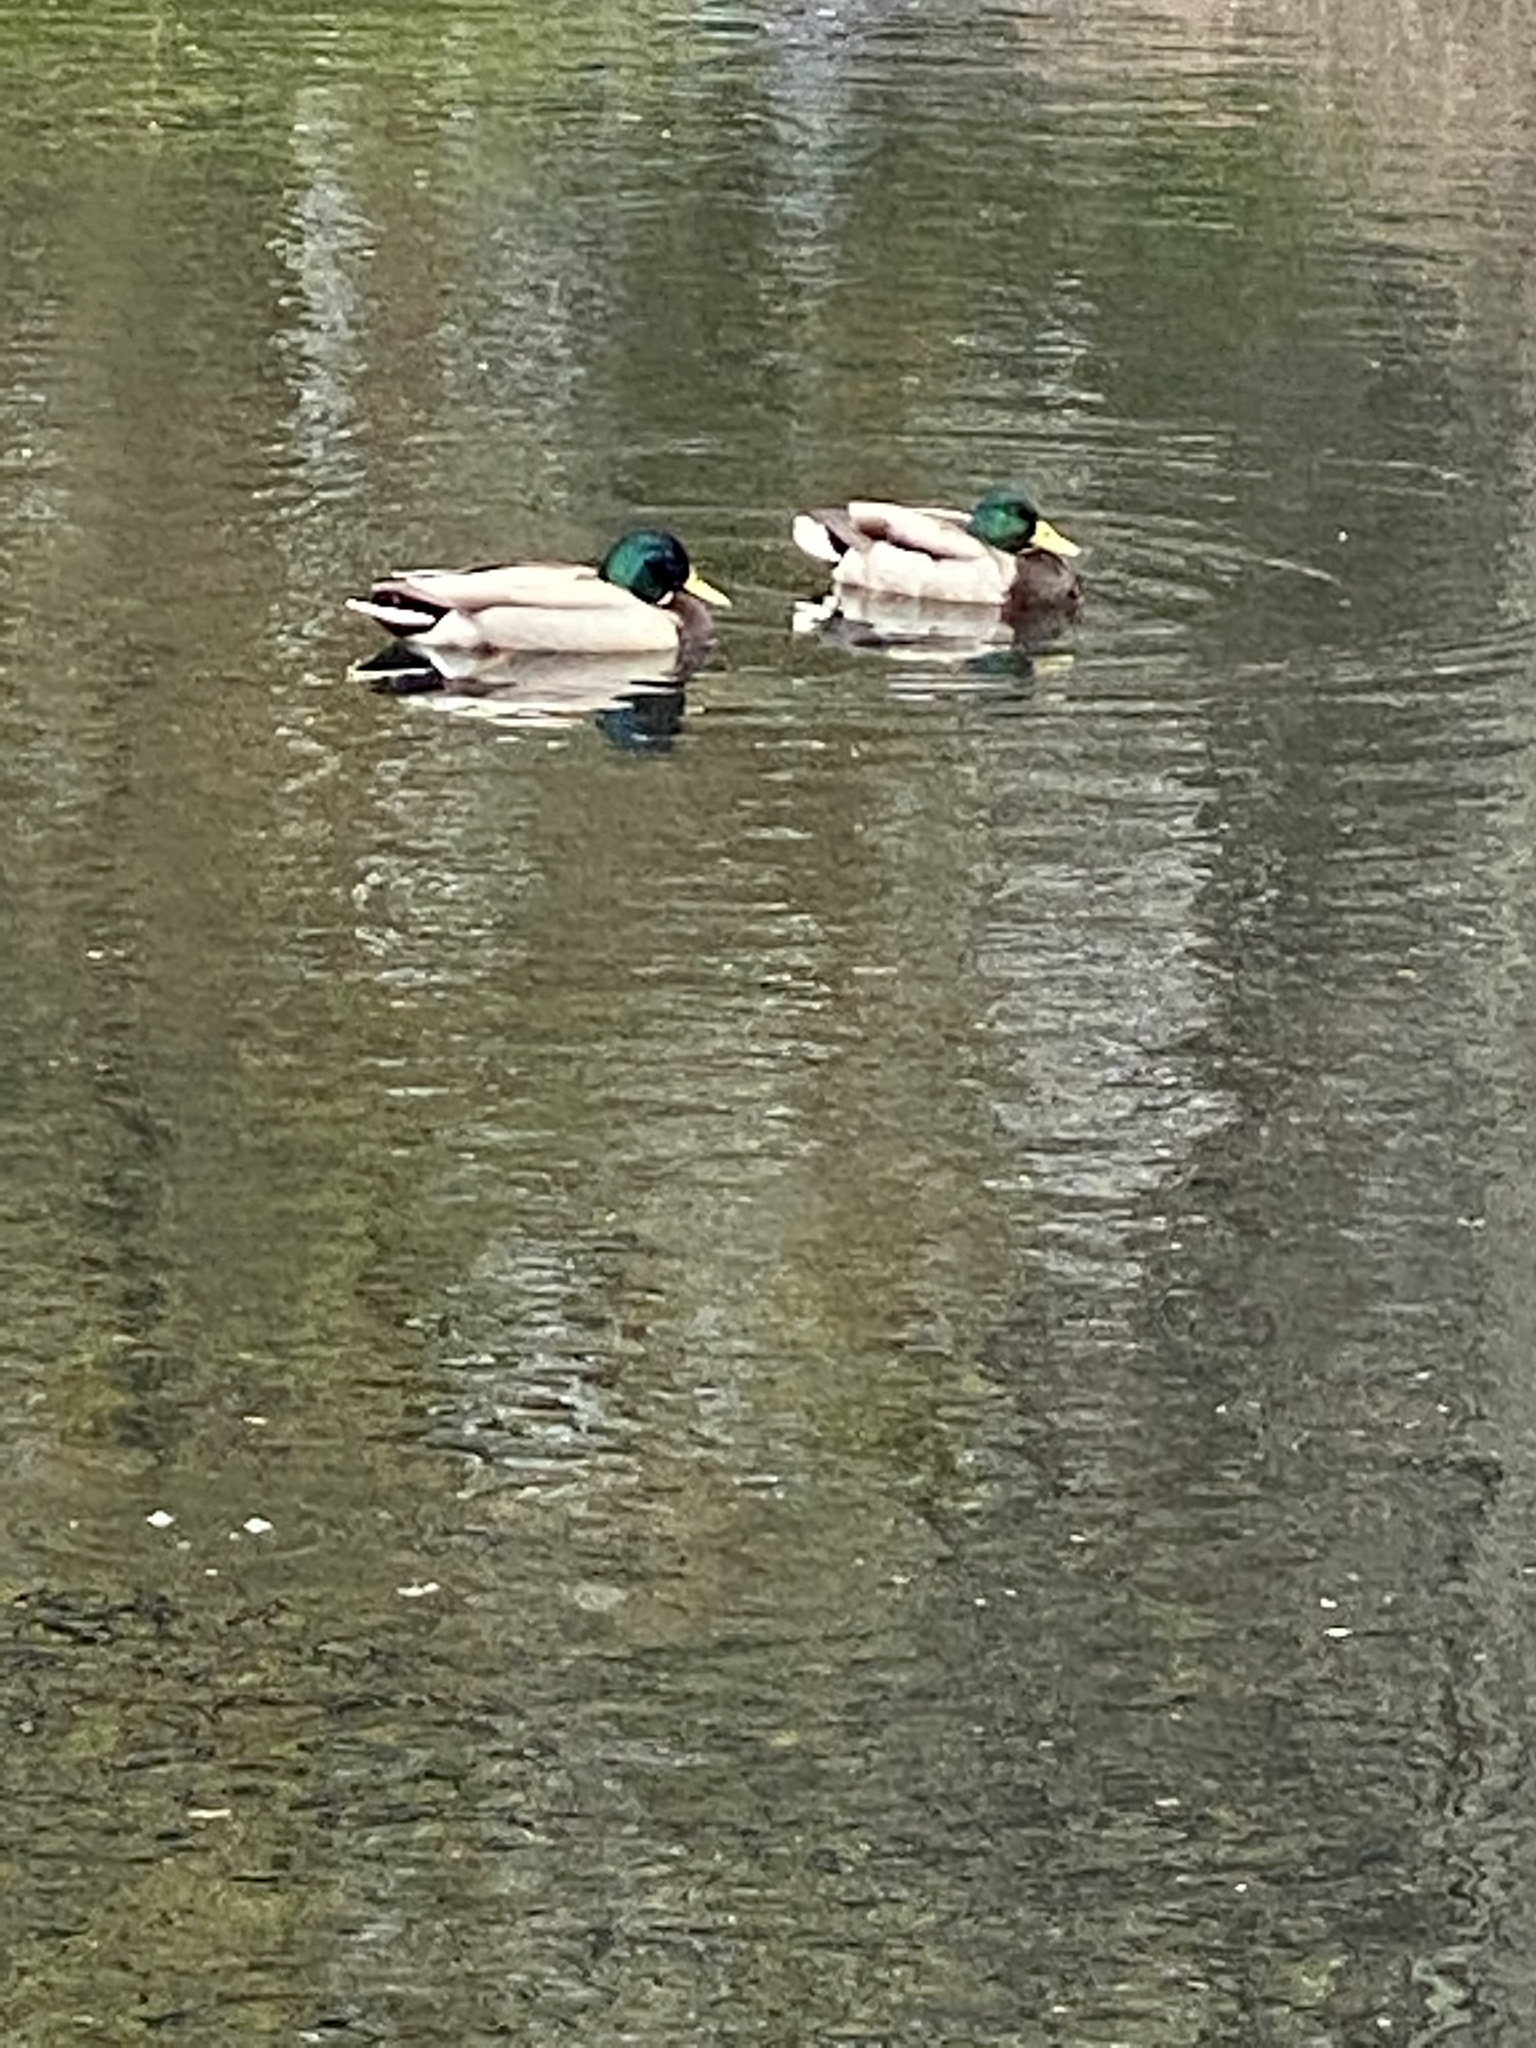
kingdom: Animalia
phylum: Chordata
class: Aves
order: Anseriformes
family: Anatidae
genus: Anas
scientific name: Anas platyrhynchos
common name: Mallard
